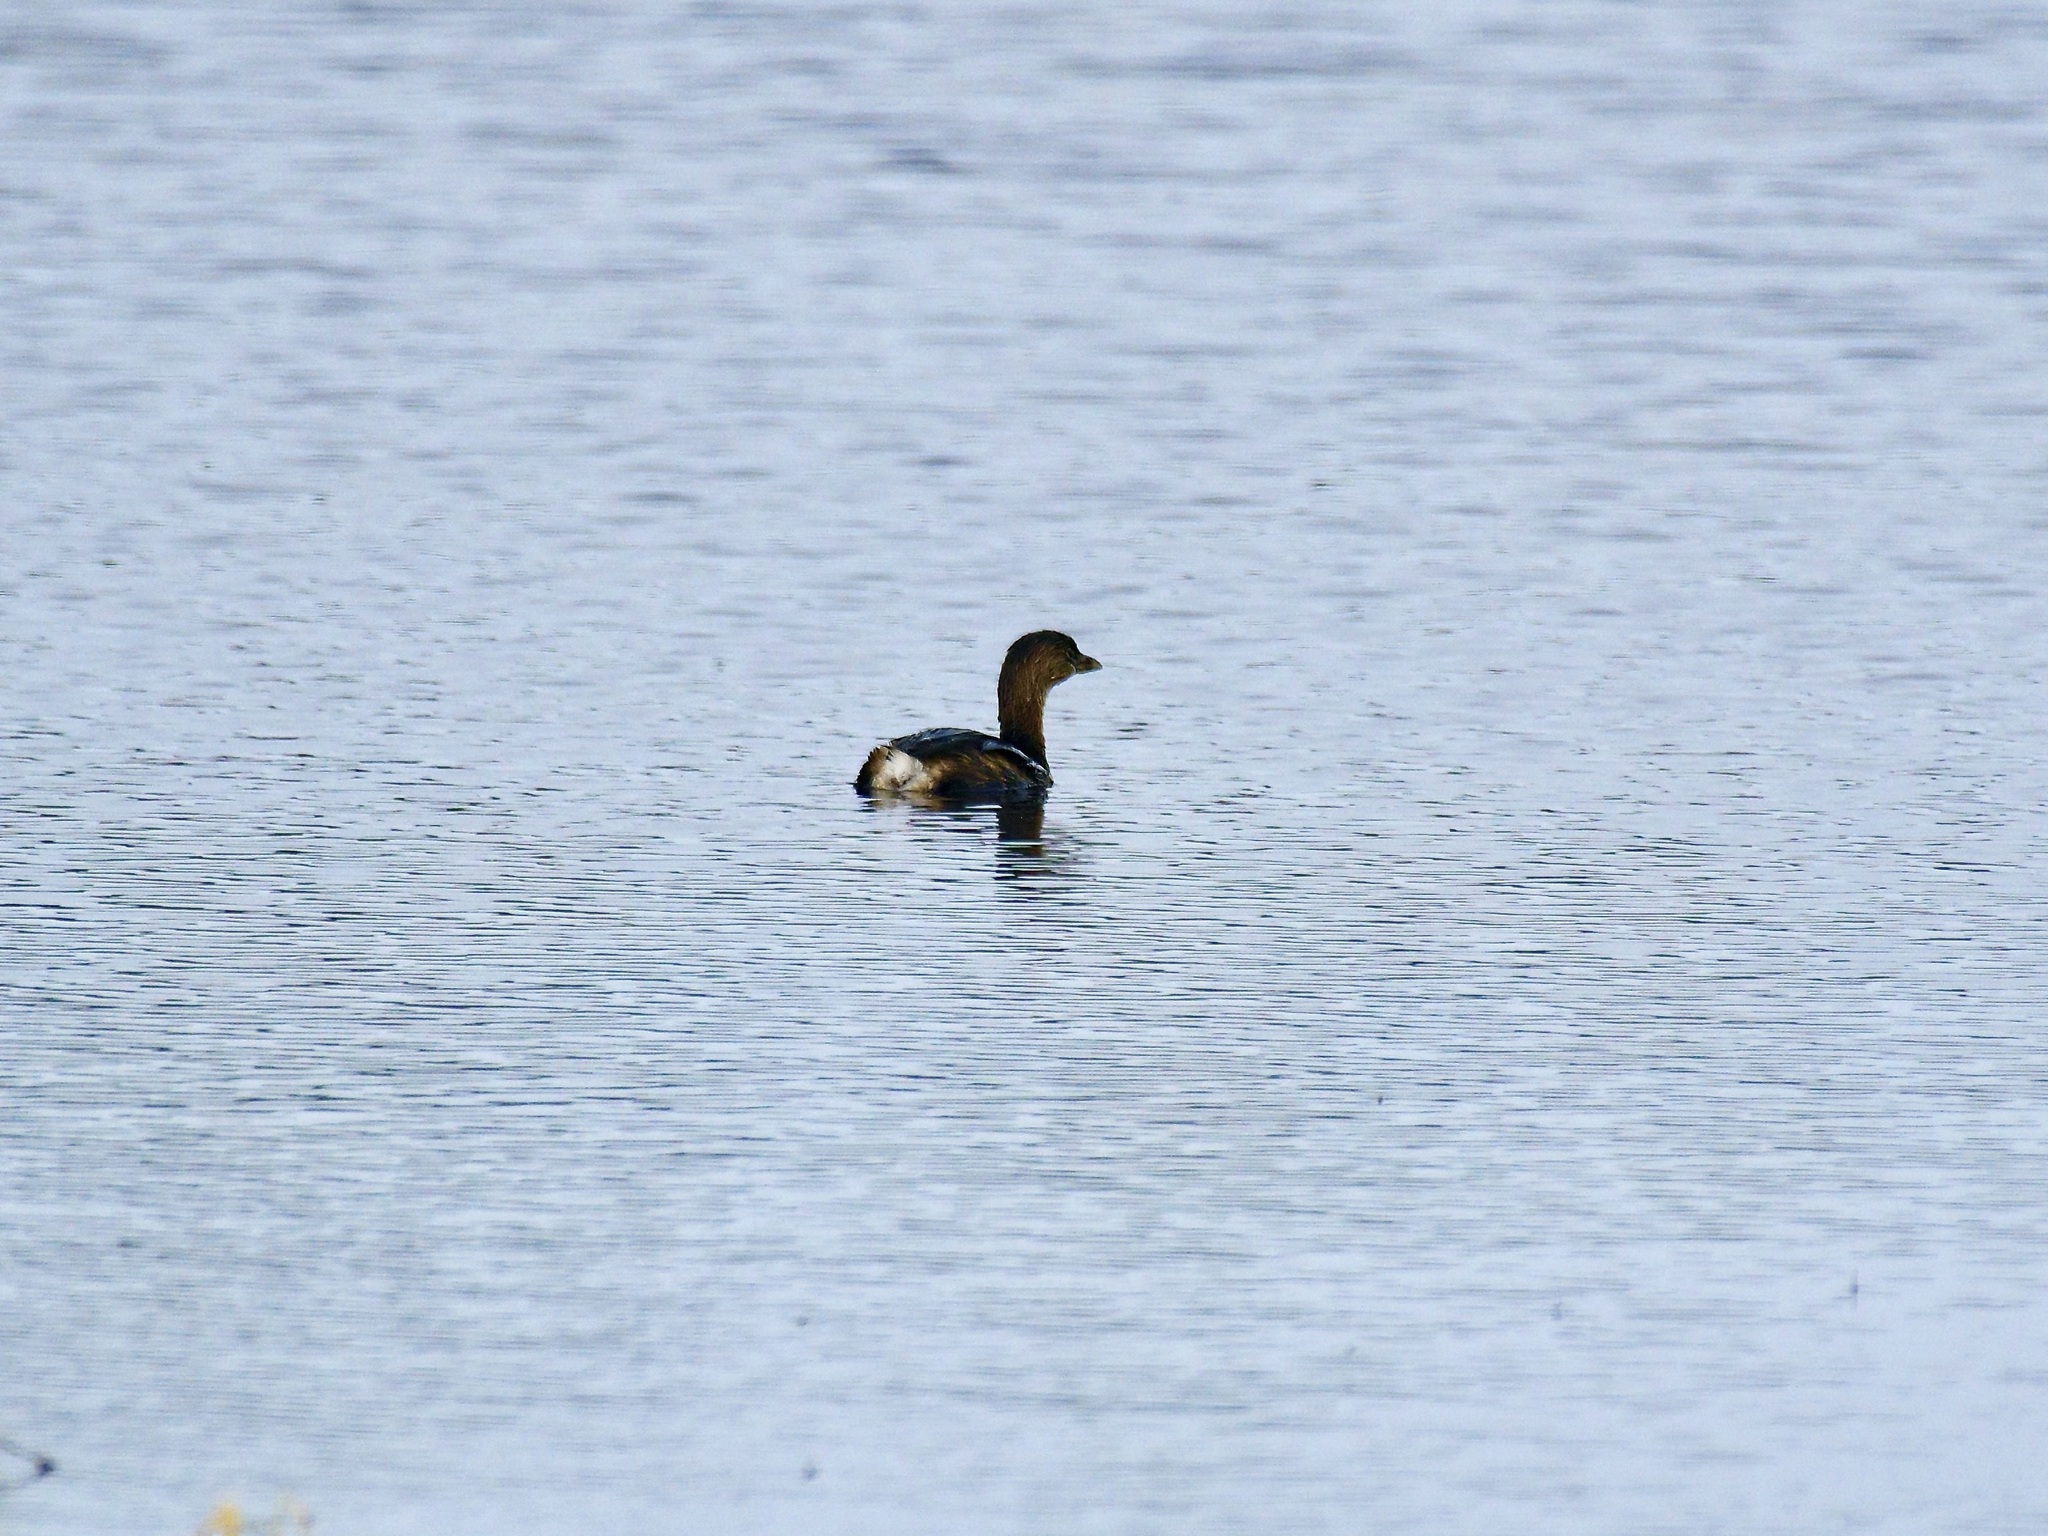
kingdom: Animalia
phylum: Chordata
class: Aves
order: Podicipediformes
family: Podicipedidae
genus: Podilymbus
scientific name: Podilymbus podiceps
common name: Pied-billed grebe
